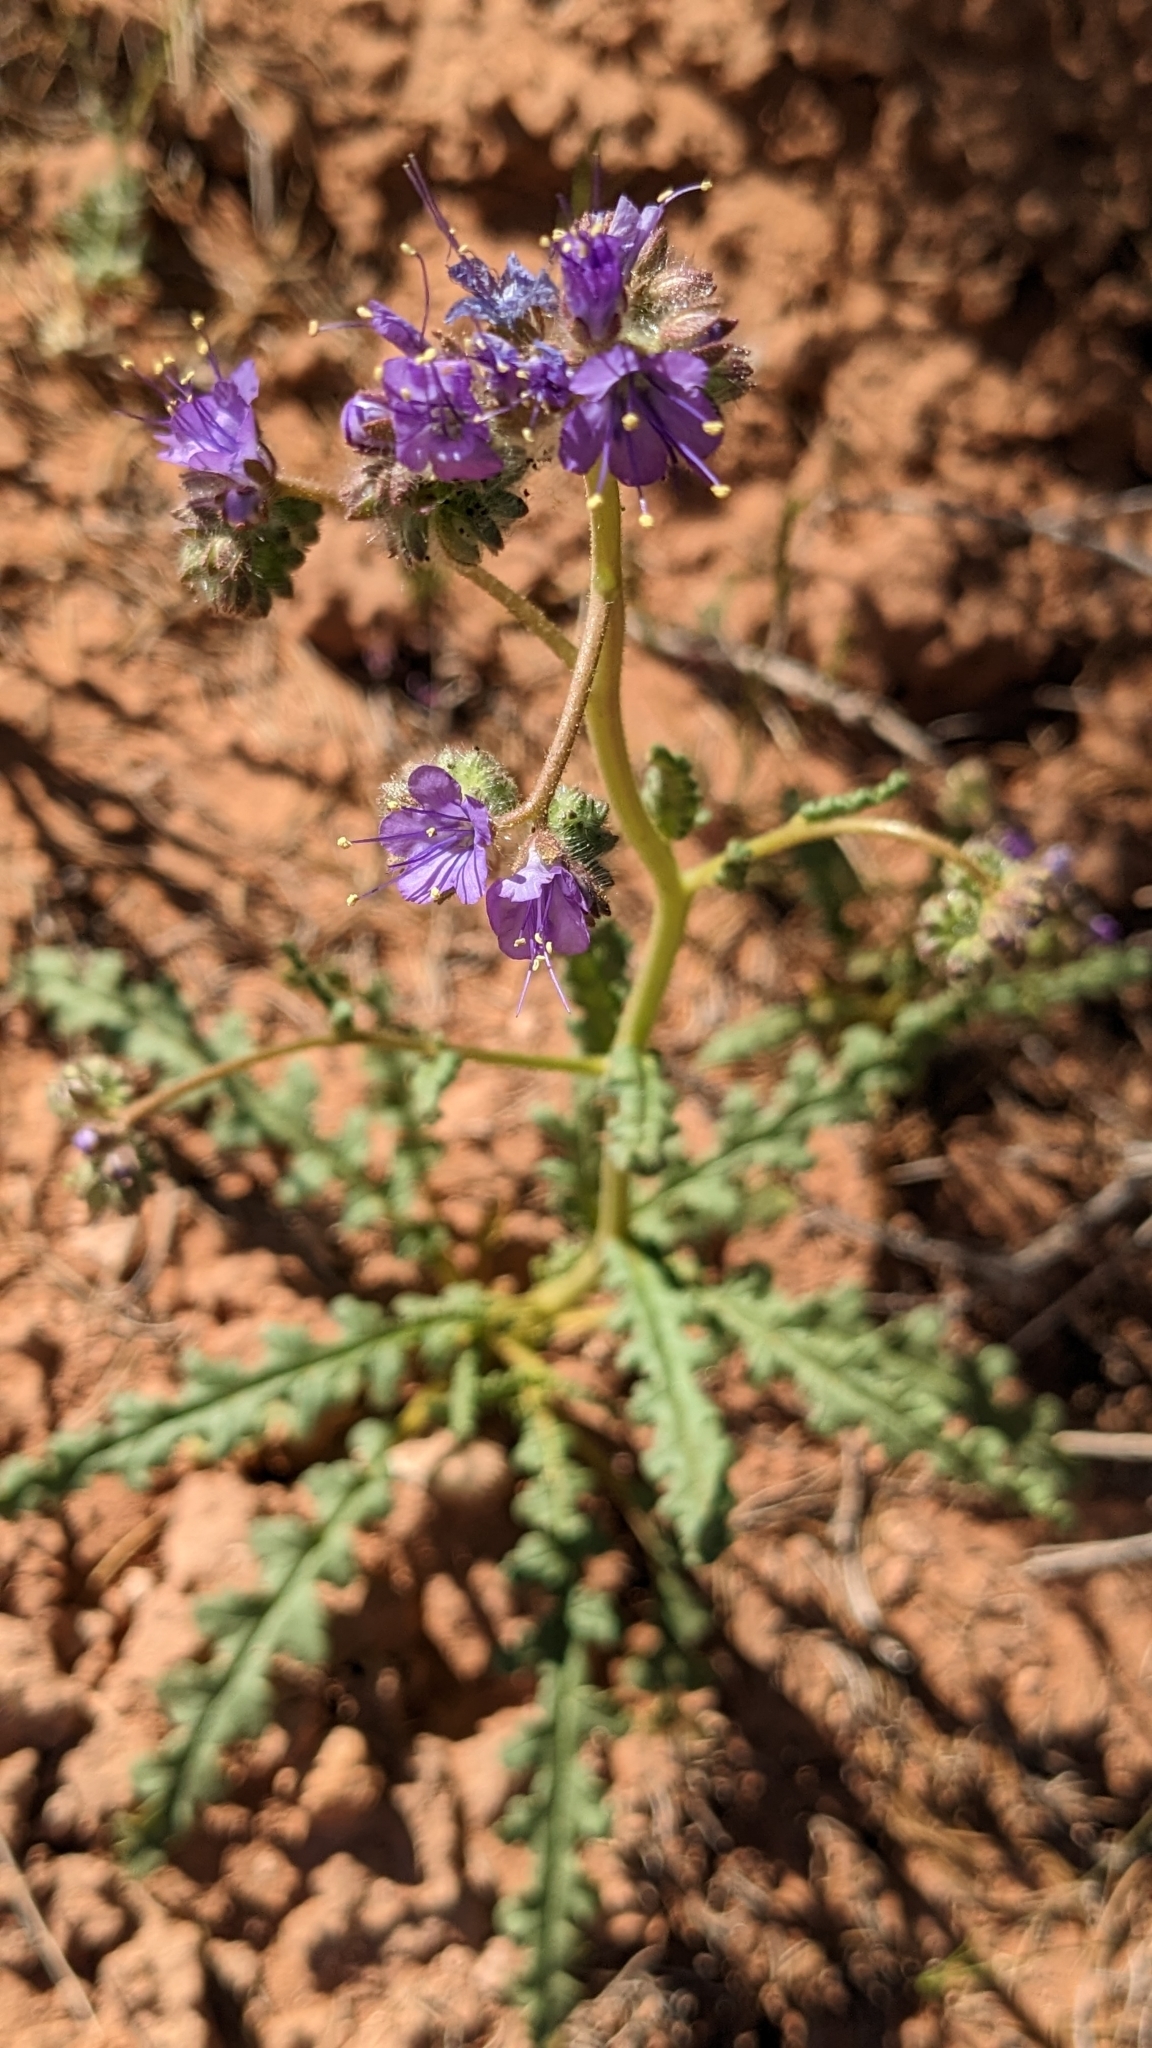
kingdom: Plantae
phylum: Tracheophyta
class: Magnoliopsida
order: Boraginales
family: Hydrophyllaceae
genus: Phacelia
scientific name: Phacelia crenulata
